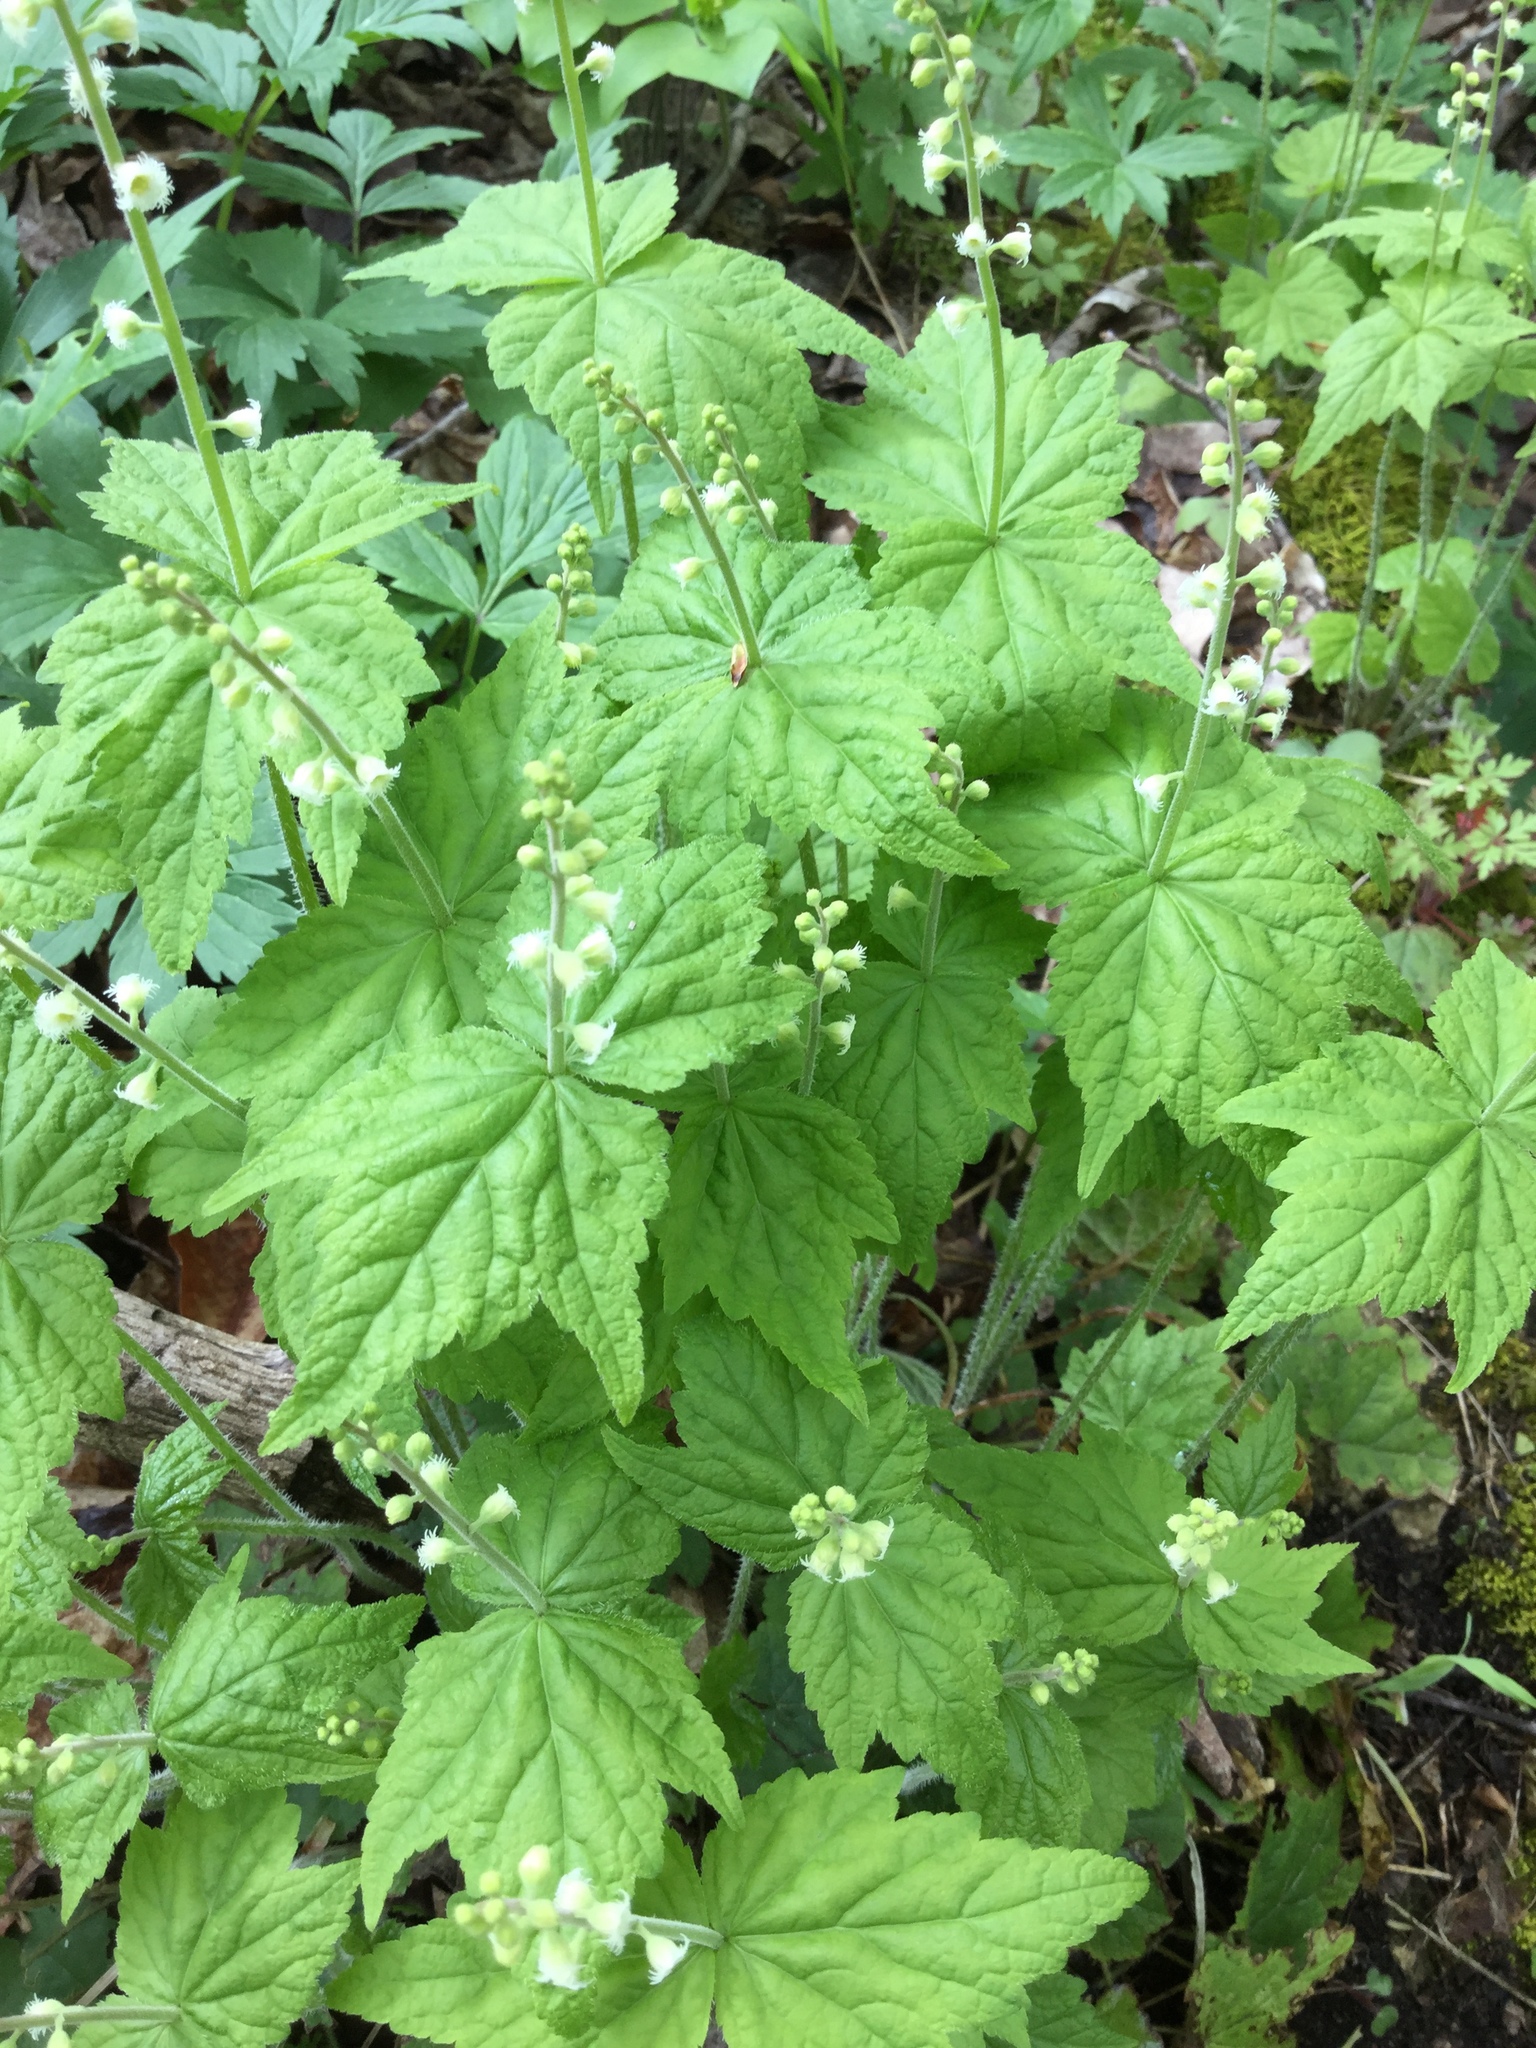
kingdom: Plantae
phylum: Tracheophyta
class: Magnoliopsida
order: Saxifragales
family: Saxifragaceae
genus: Mitella
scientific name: Mitella diphylla
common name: Coolwort
